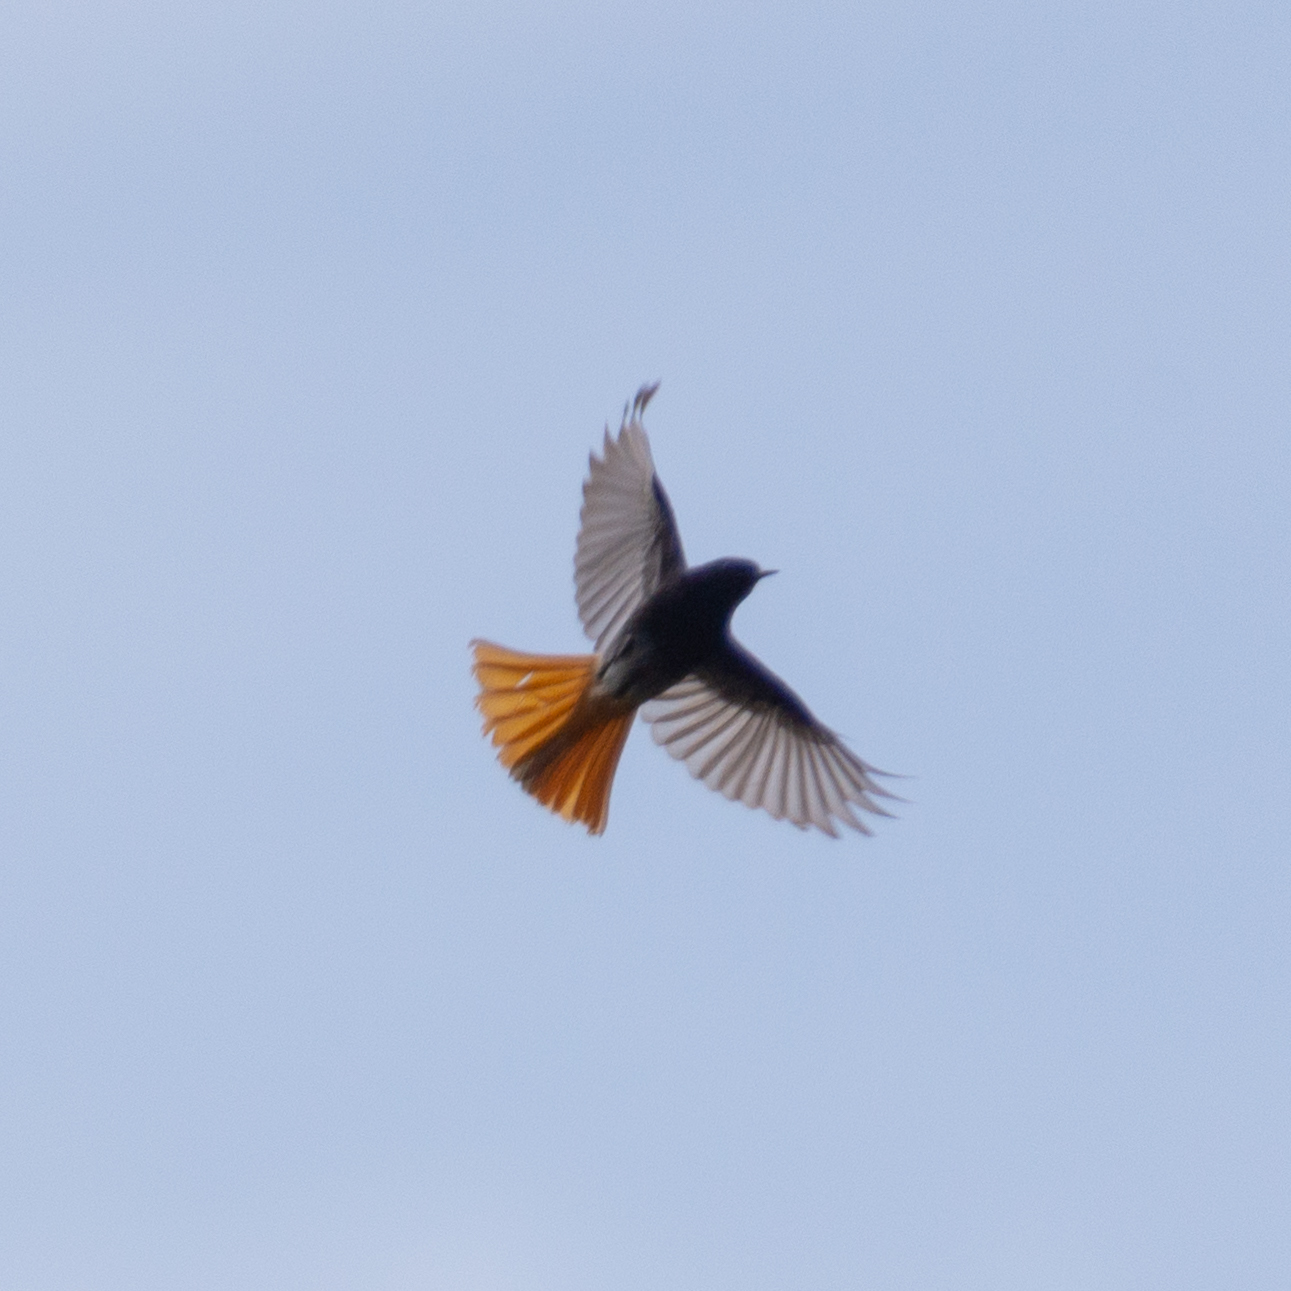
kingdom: Animalia
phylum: Chordata
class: Aves
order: Passeriformes
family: Muscicapidae
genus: Phoenicurus
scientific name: Phoenicurus ochruros
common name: Black redstart
